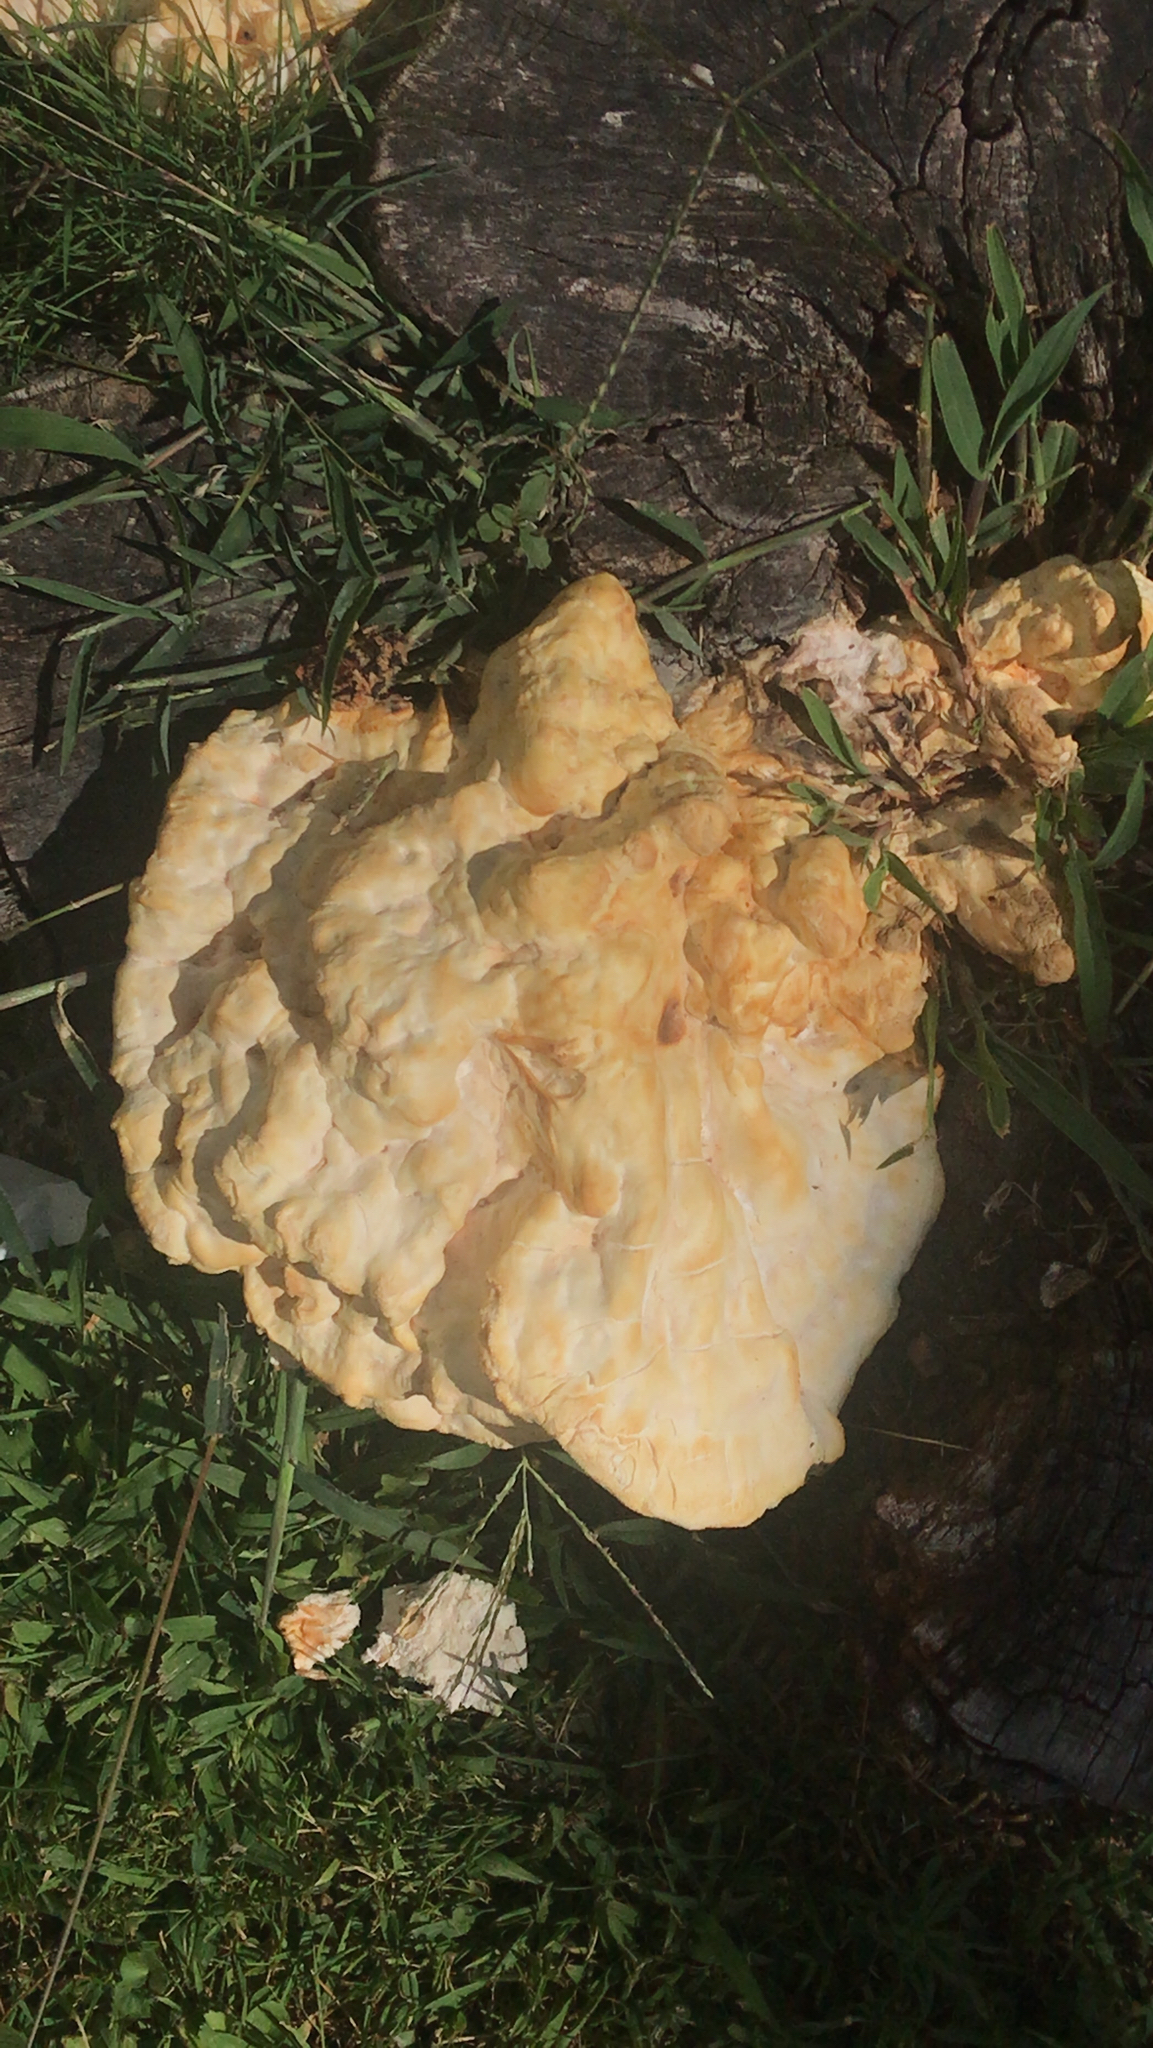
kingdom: Fungi
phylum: Basidiomycota
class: Agaricomycetes
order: Polyporales
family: Laetiporaceae
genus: Laetiporus
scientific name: Laetiporus sulphureus
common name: Chicken of the woods
